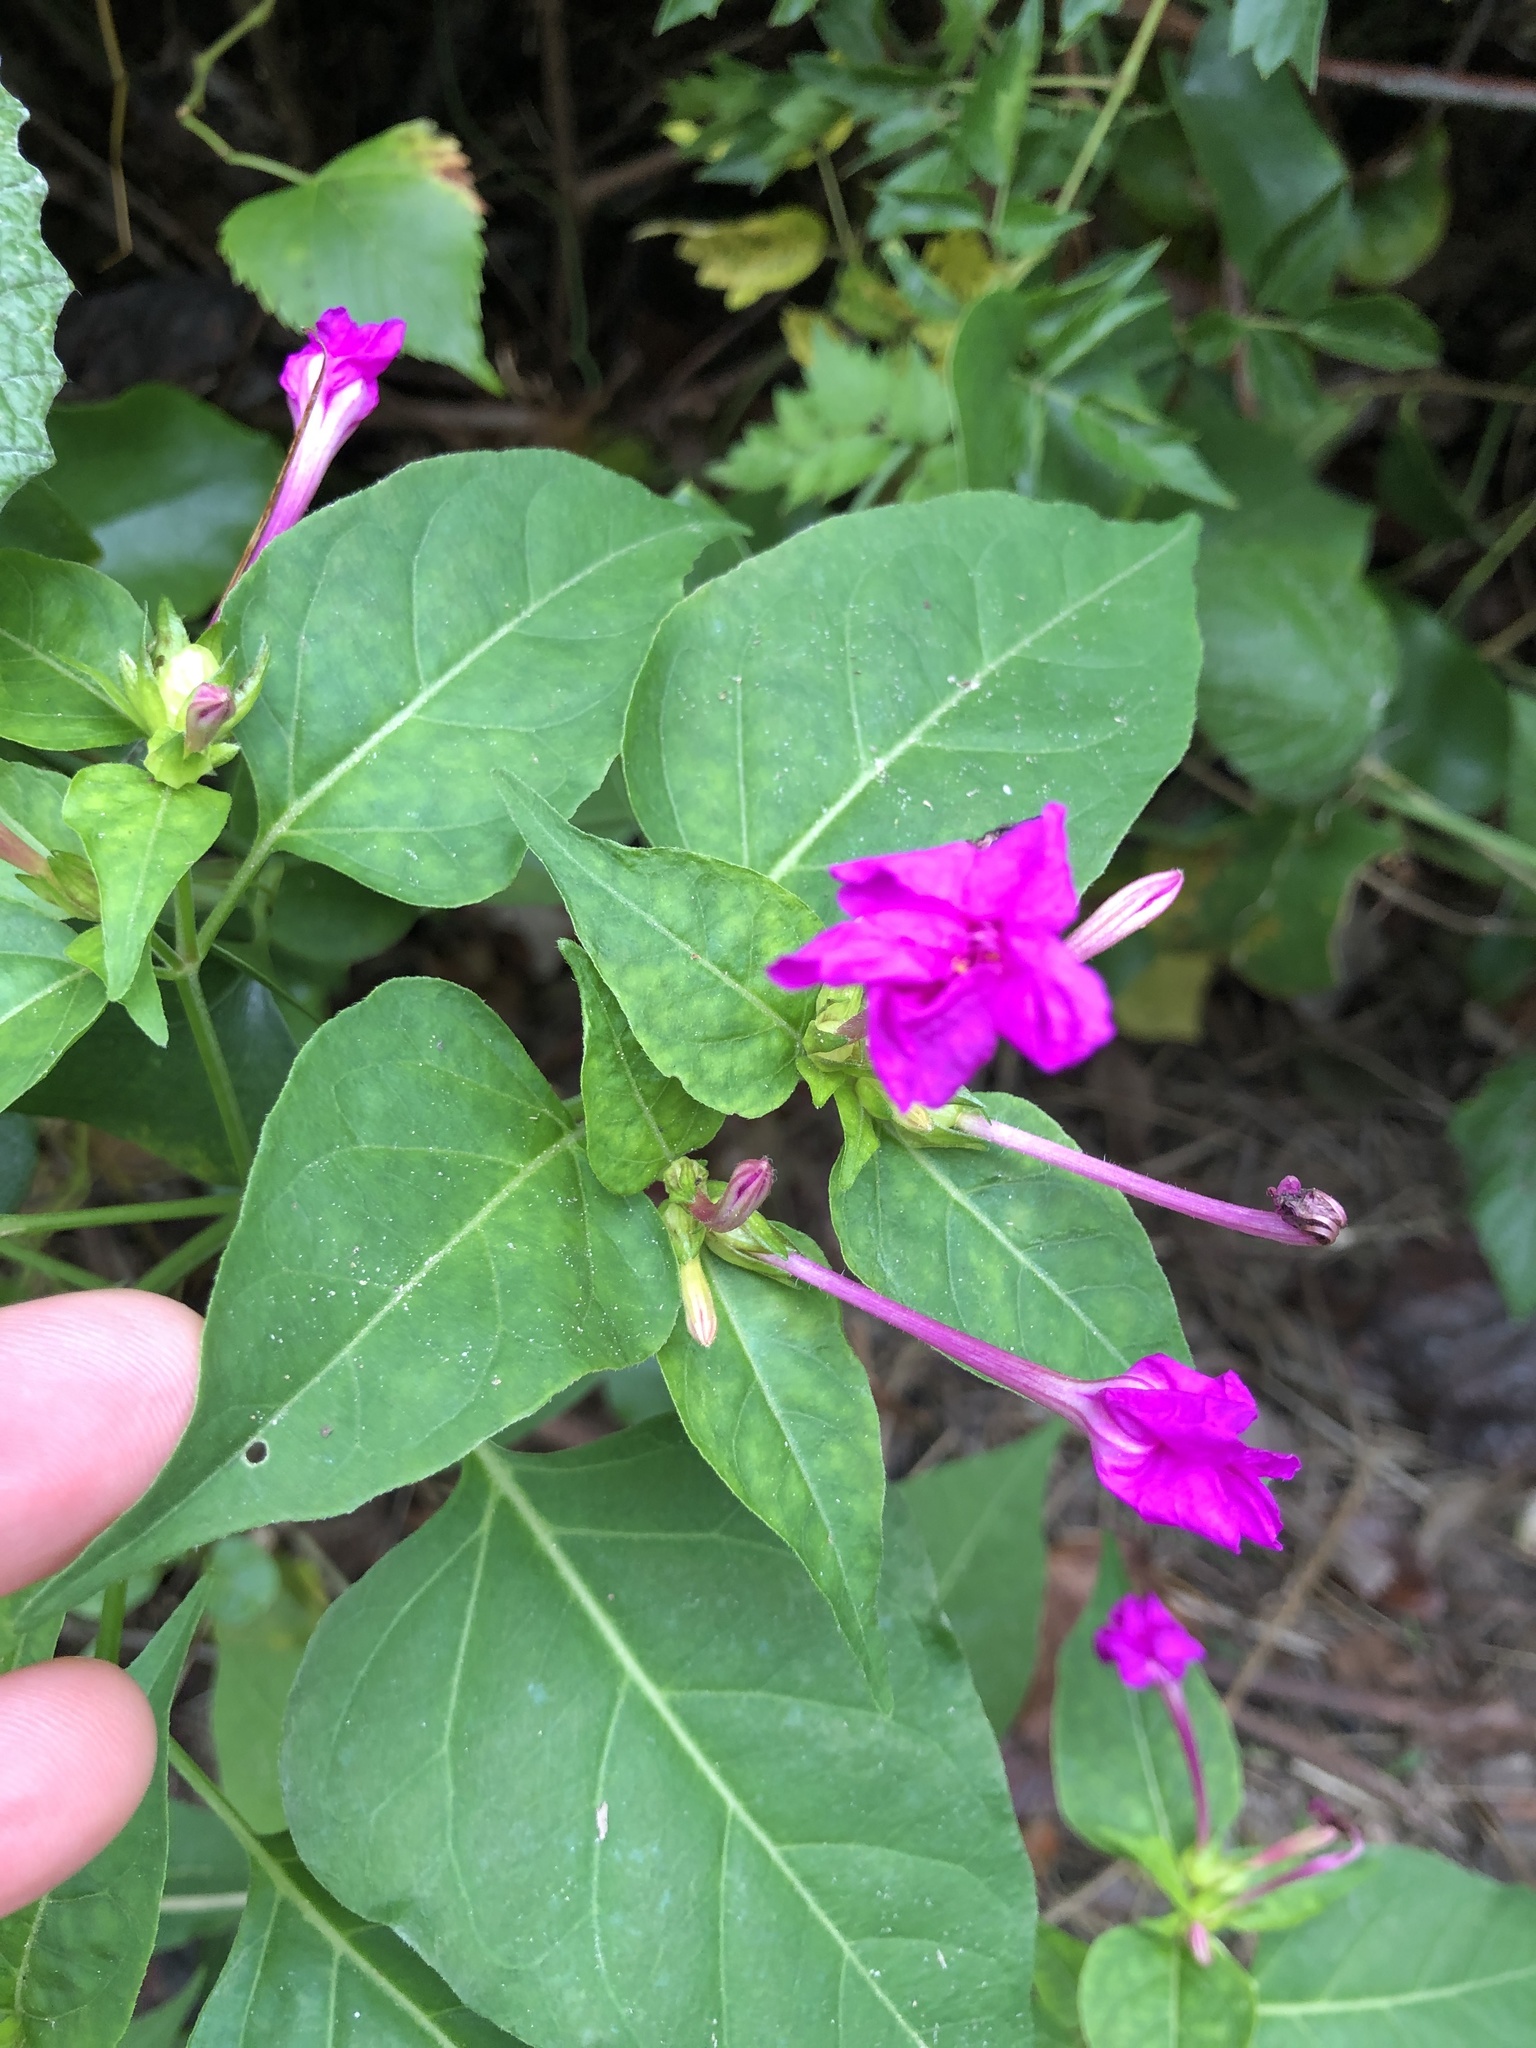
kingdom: Plantae
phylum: Tracheophyta
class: Magnoliopsida
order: Caryophyllales
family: Nyctaginaceae
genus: Mirabilis
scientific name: Mirabilis jalapa
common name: Marvel-of-peru
